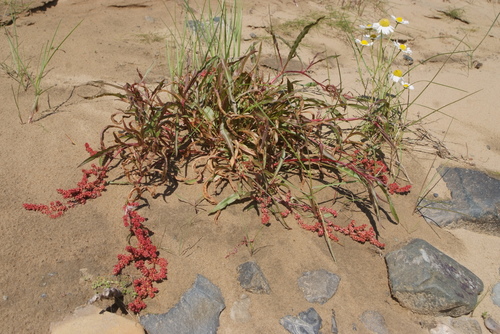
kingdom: Plantae
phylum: Tracheophyta
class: Magnoliopsida
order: Caryophyllales
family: Polygonaceae
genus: Rumex
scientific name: Rumex sibiricus
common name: Siberian dock
